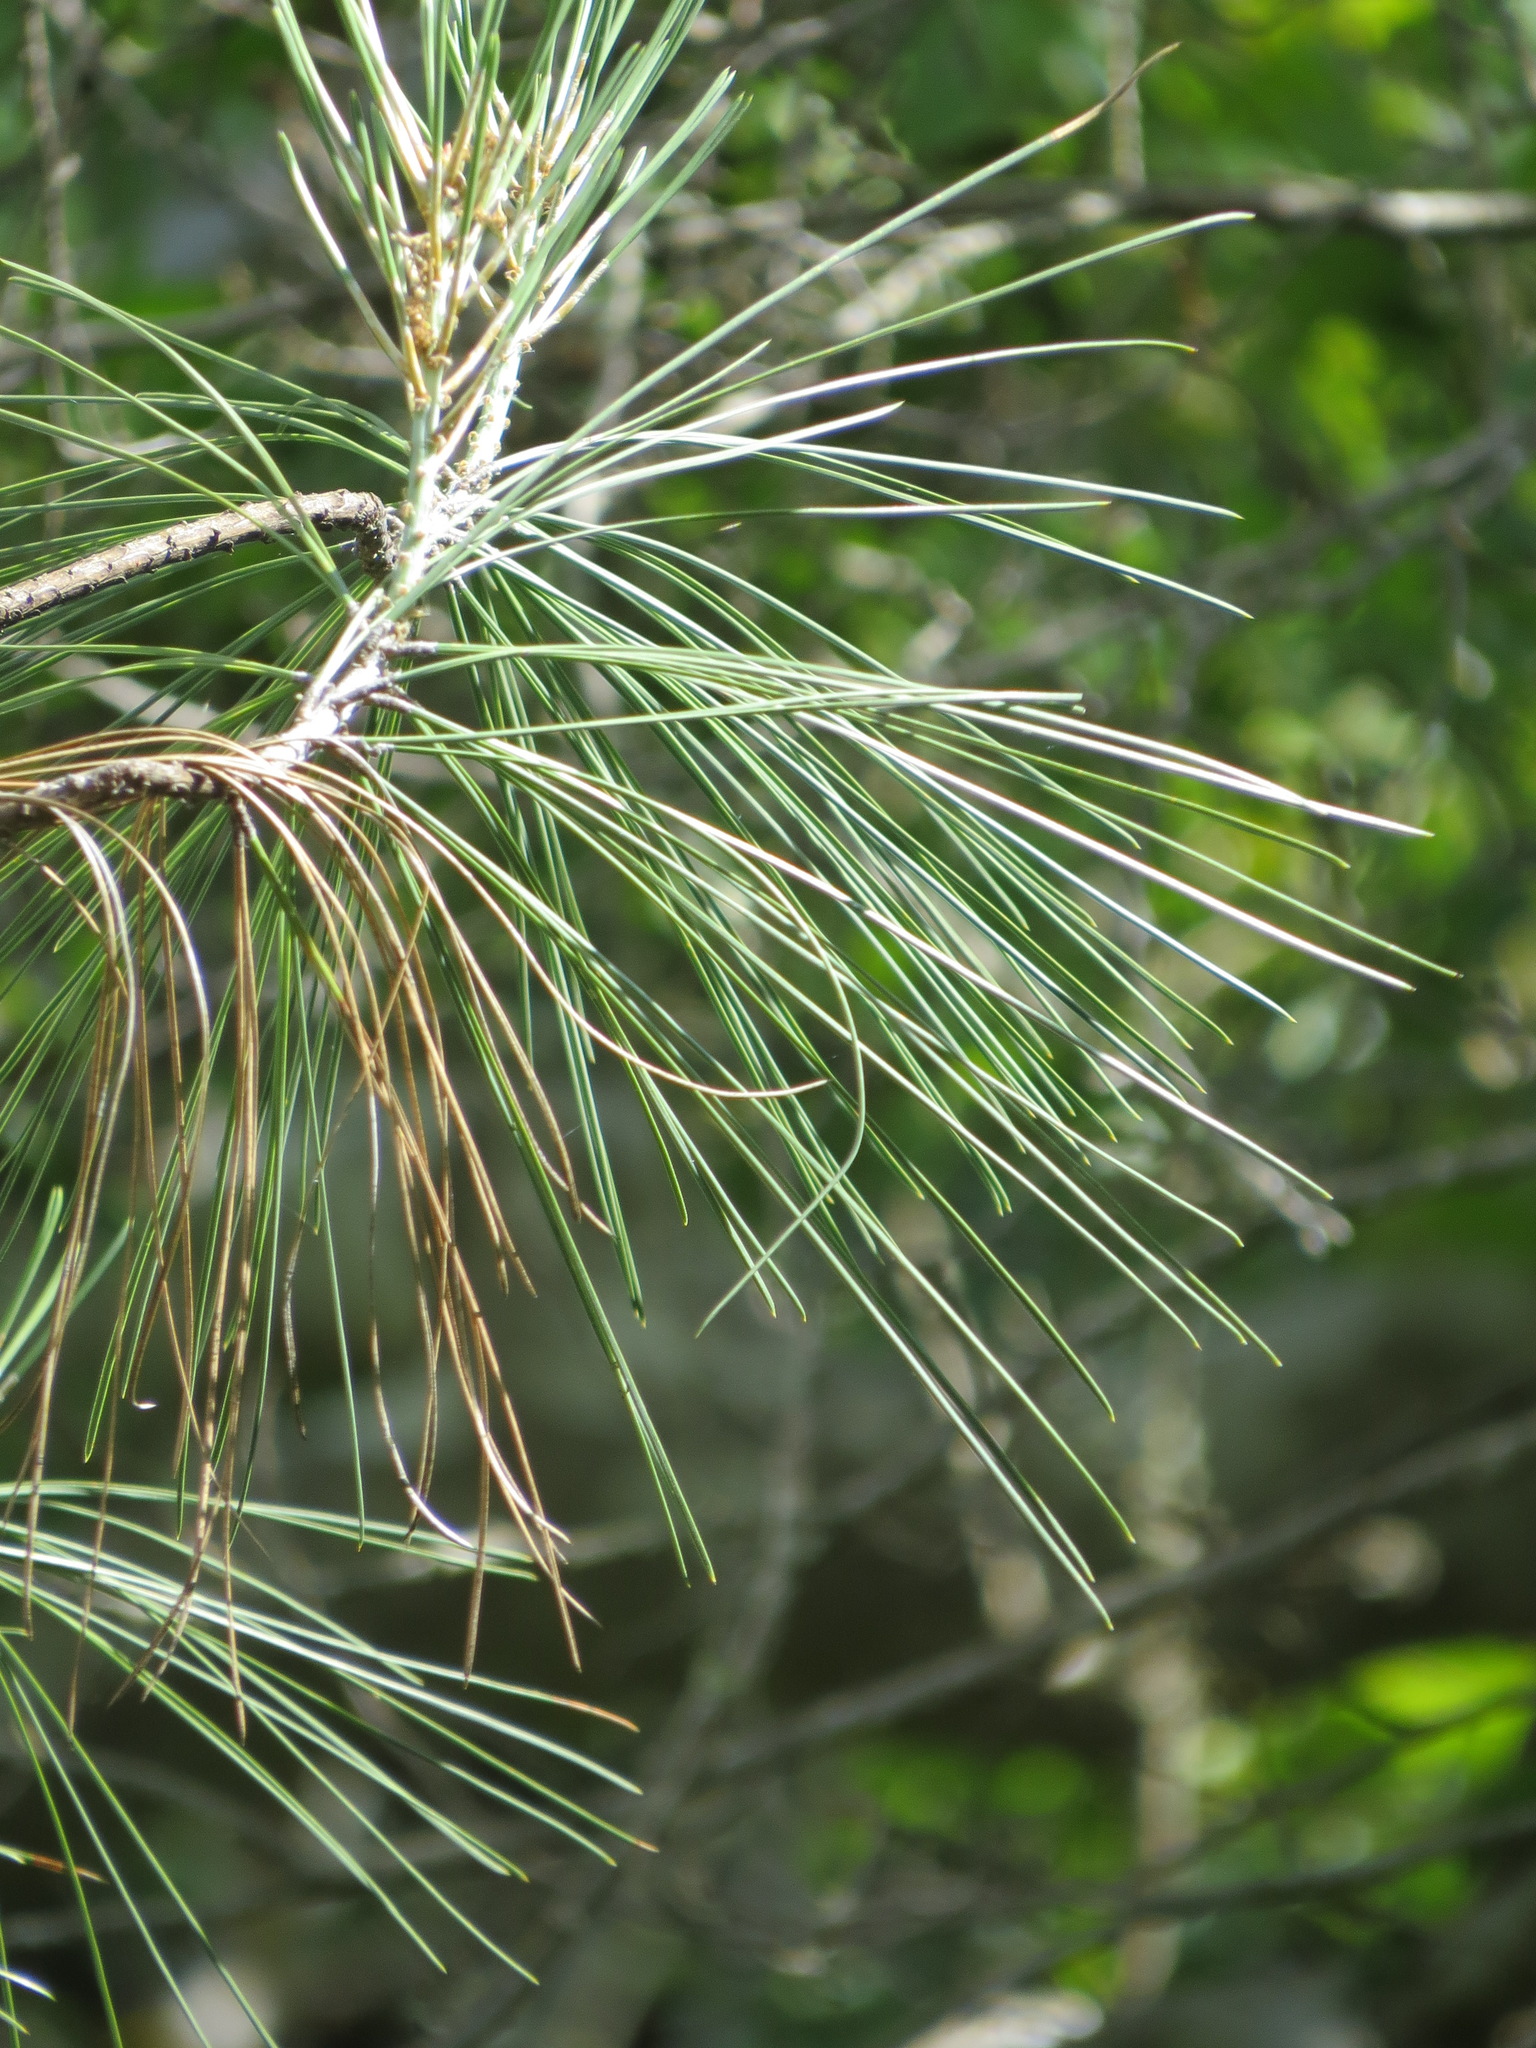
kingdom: Plantae
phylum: Tracheophyta
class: Pinopsida
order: Pinales
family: Pinaceae
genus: Pinus
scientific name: Pinus sabiniana
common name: Bull pine
